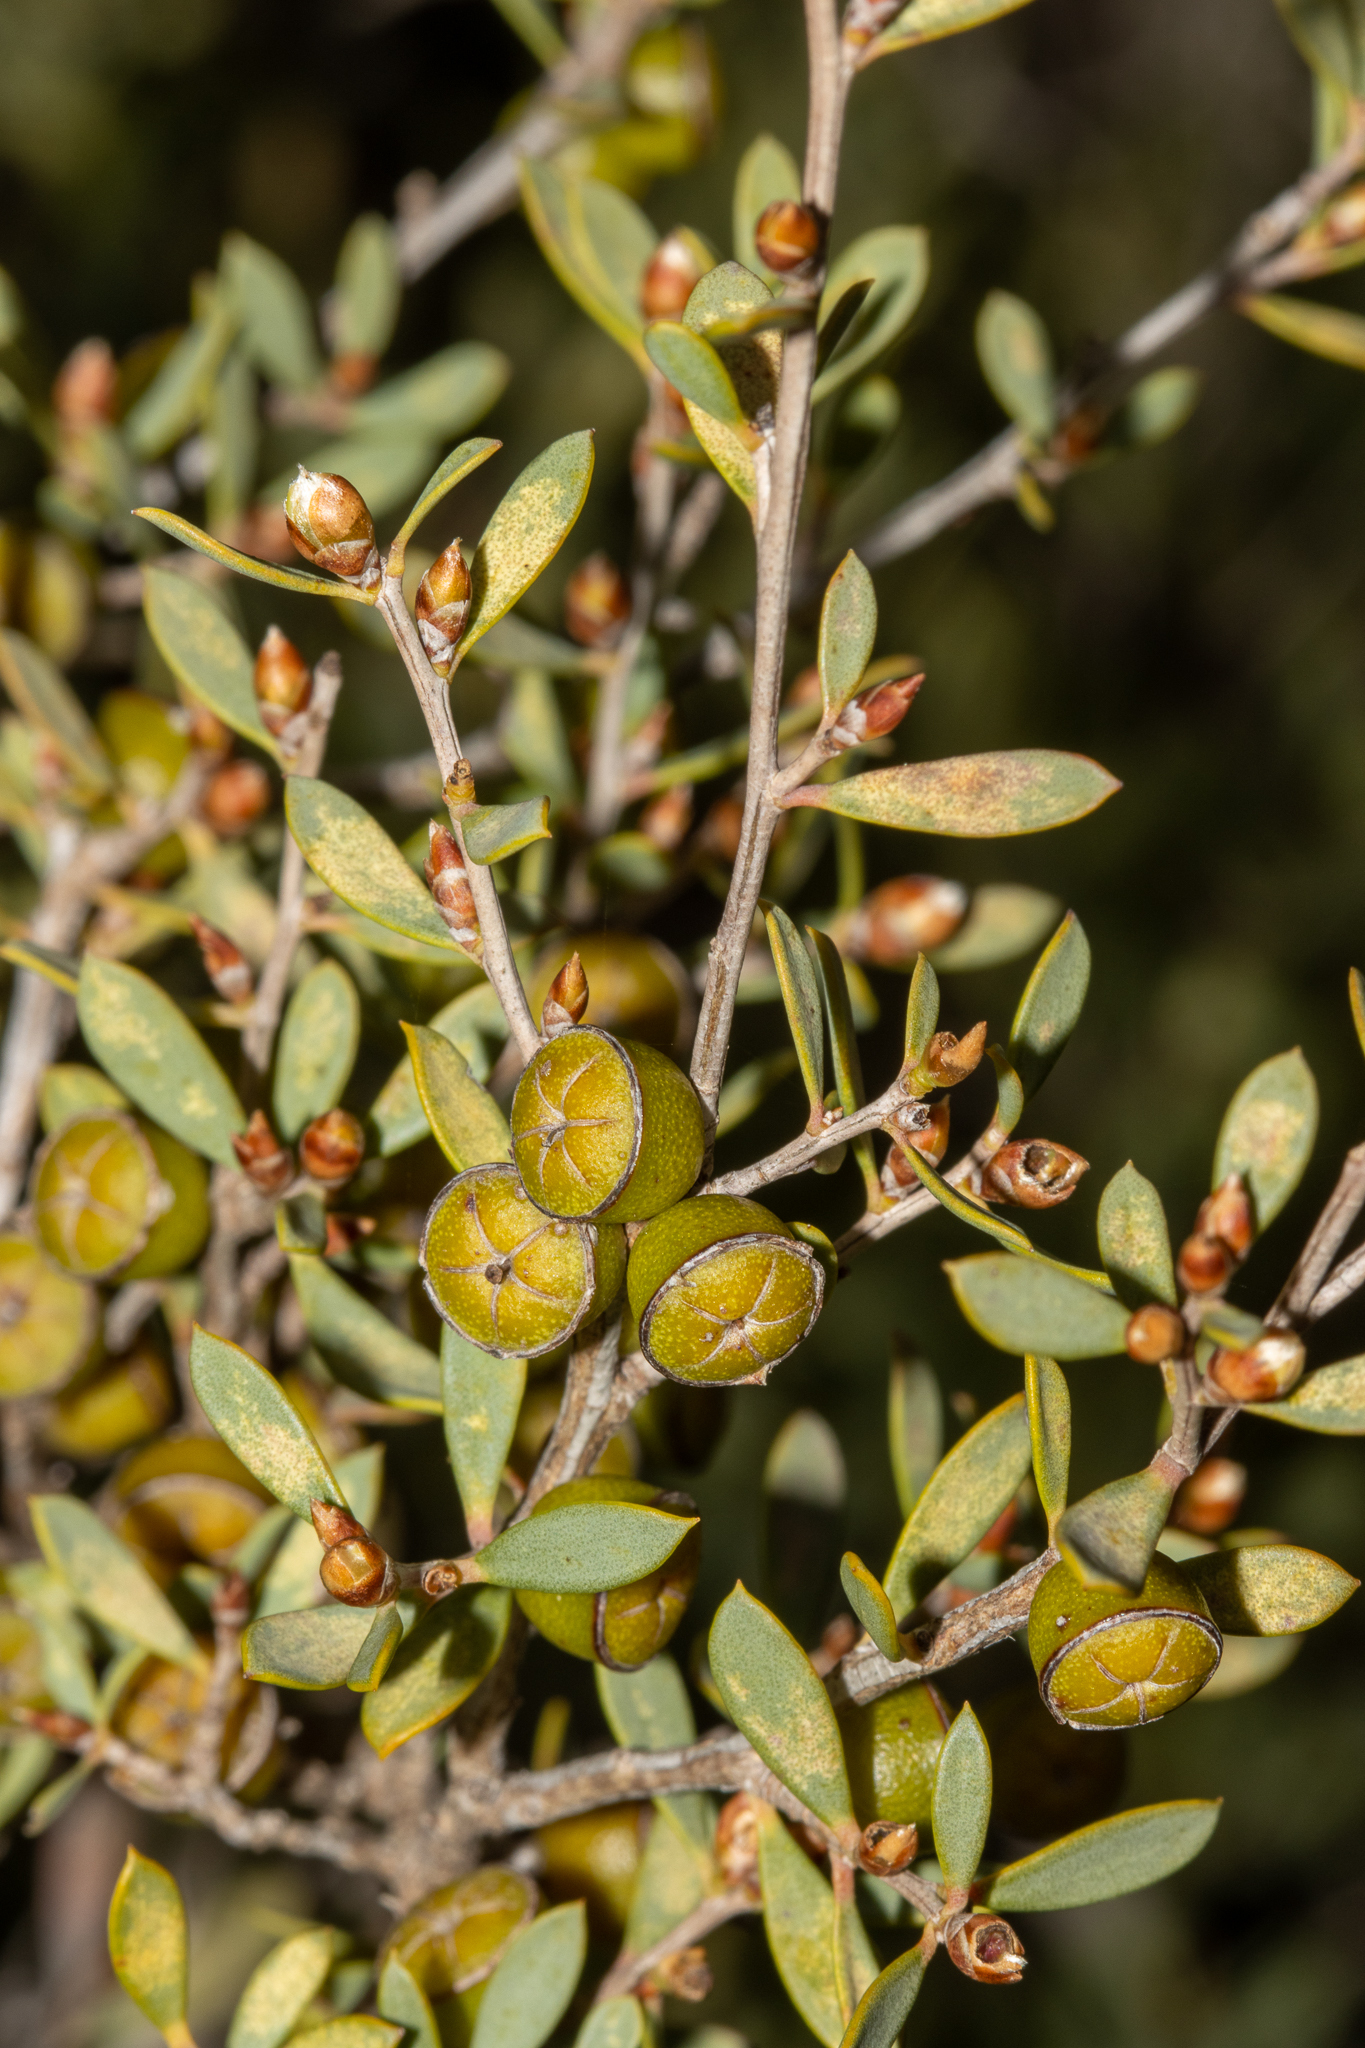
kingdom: Plantae
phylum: Tracheophyta
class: Magnoliopsida
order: Myrtales
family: Myrtaceae
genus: Leptospermum
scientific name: Leptospermum coriaceum
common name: Mallee teatree
